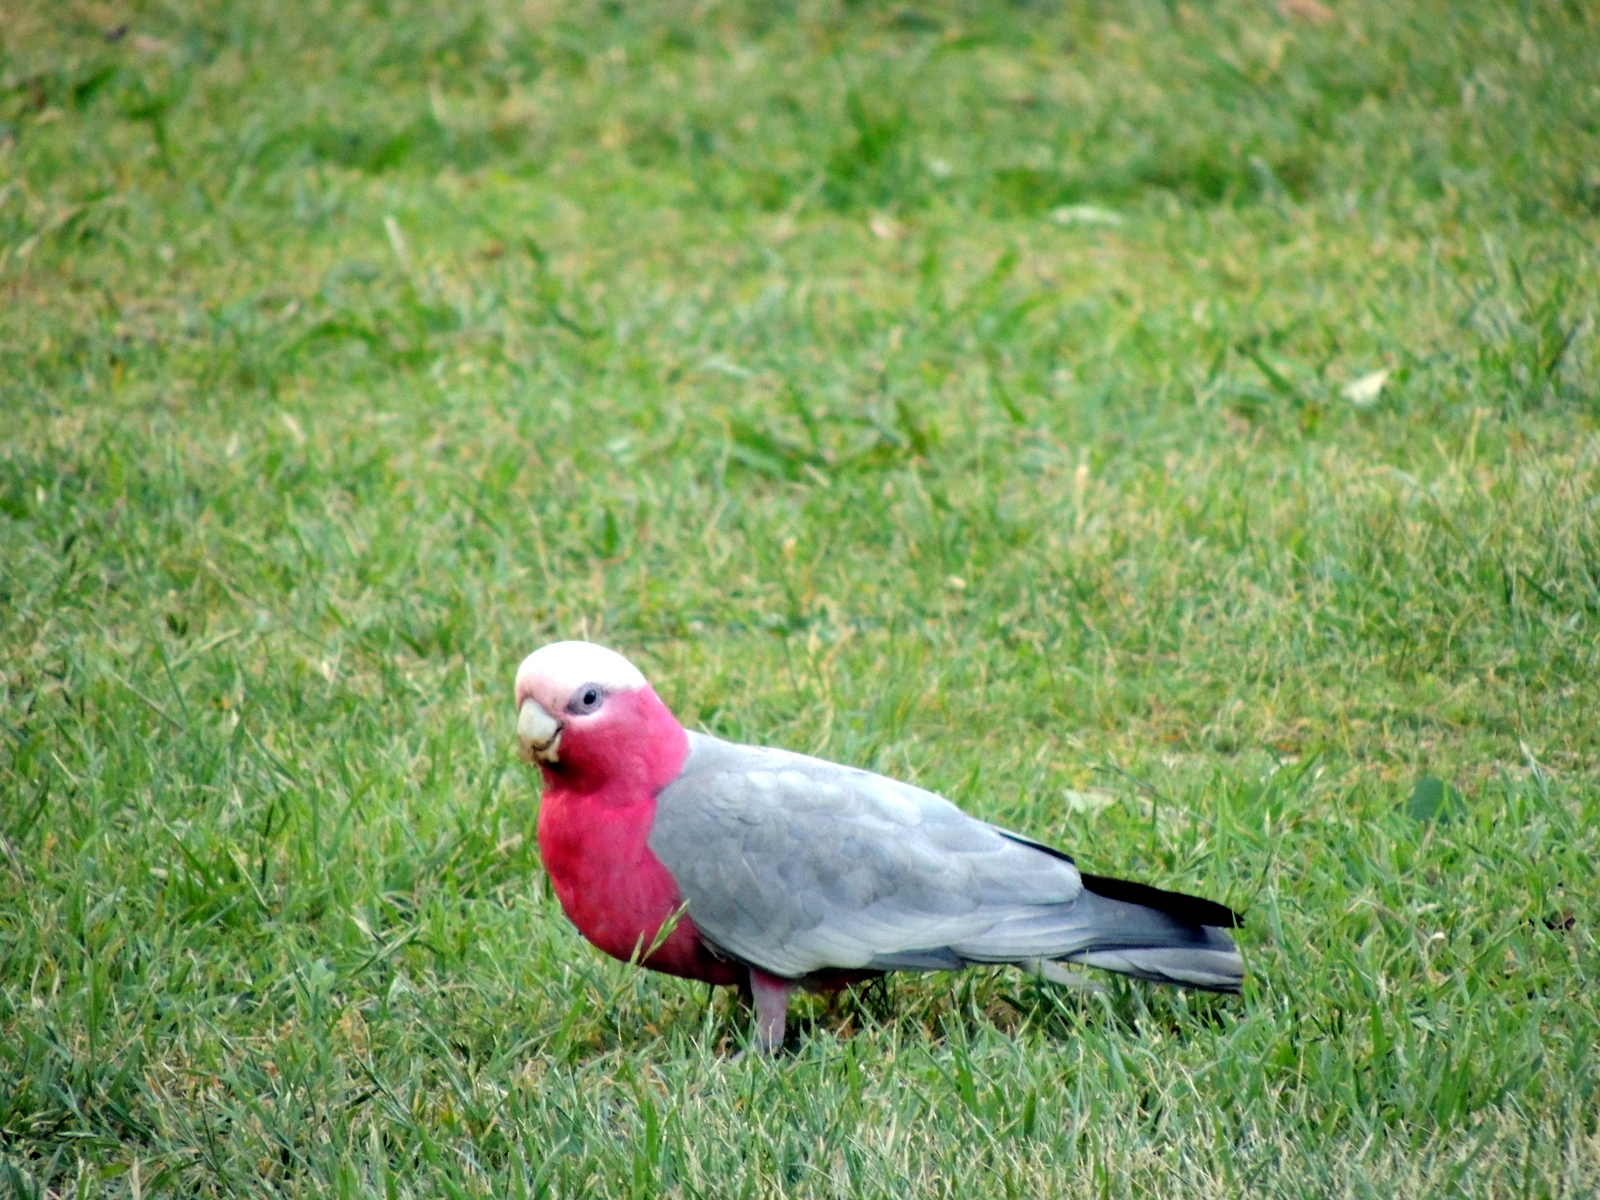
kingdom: Animalia
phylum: Chordata
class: Aves
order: Psittaciformes
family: Psittacidae
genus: Eolophus
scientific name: Eolophus roseicapilla
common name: Galah
